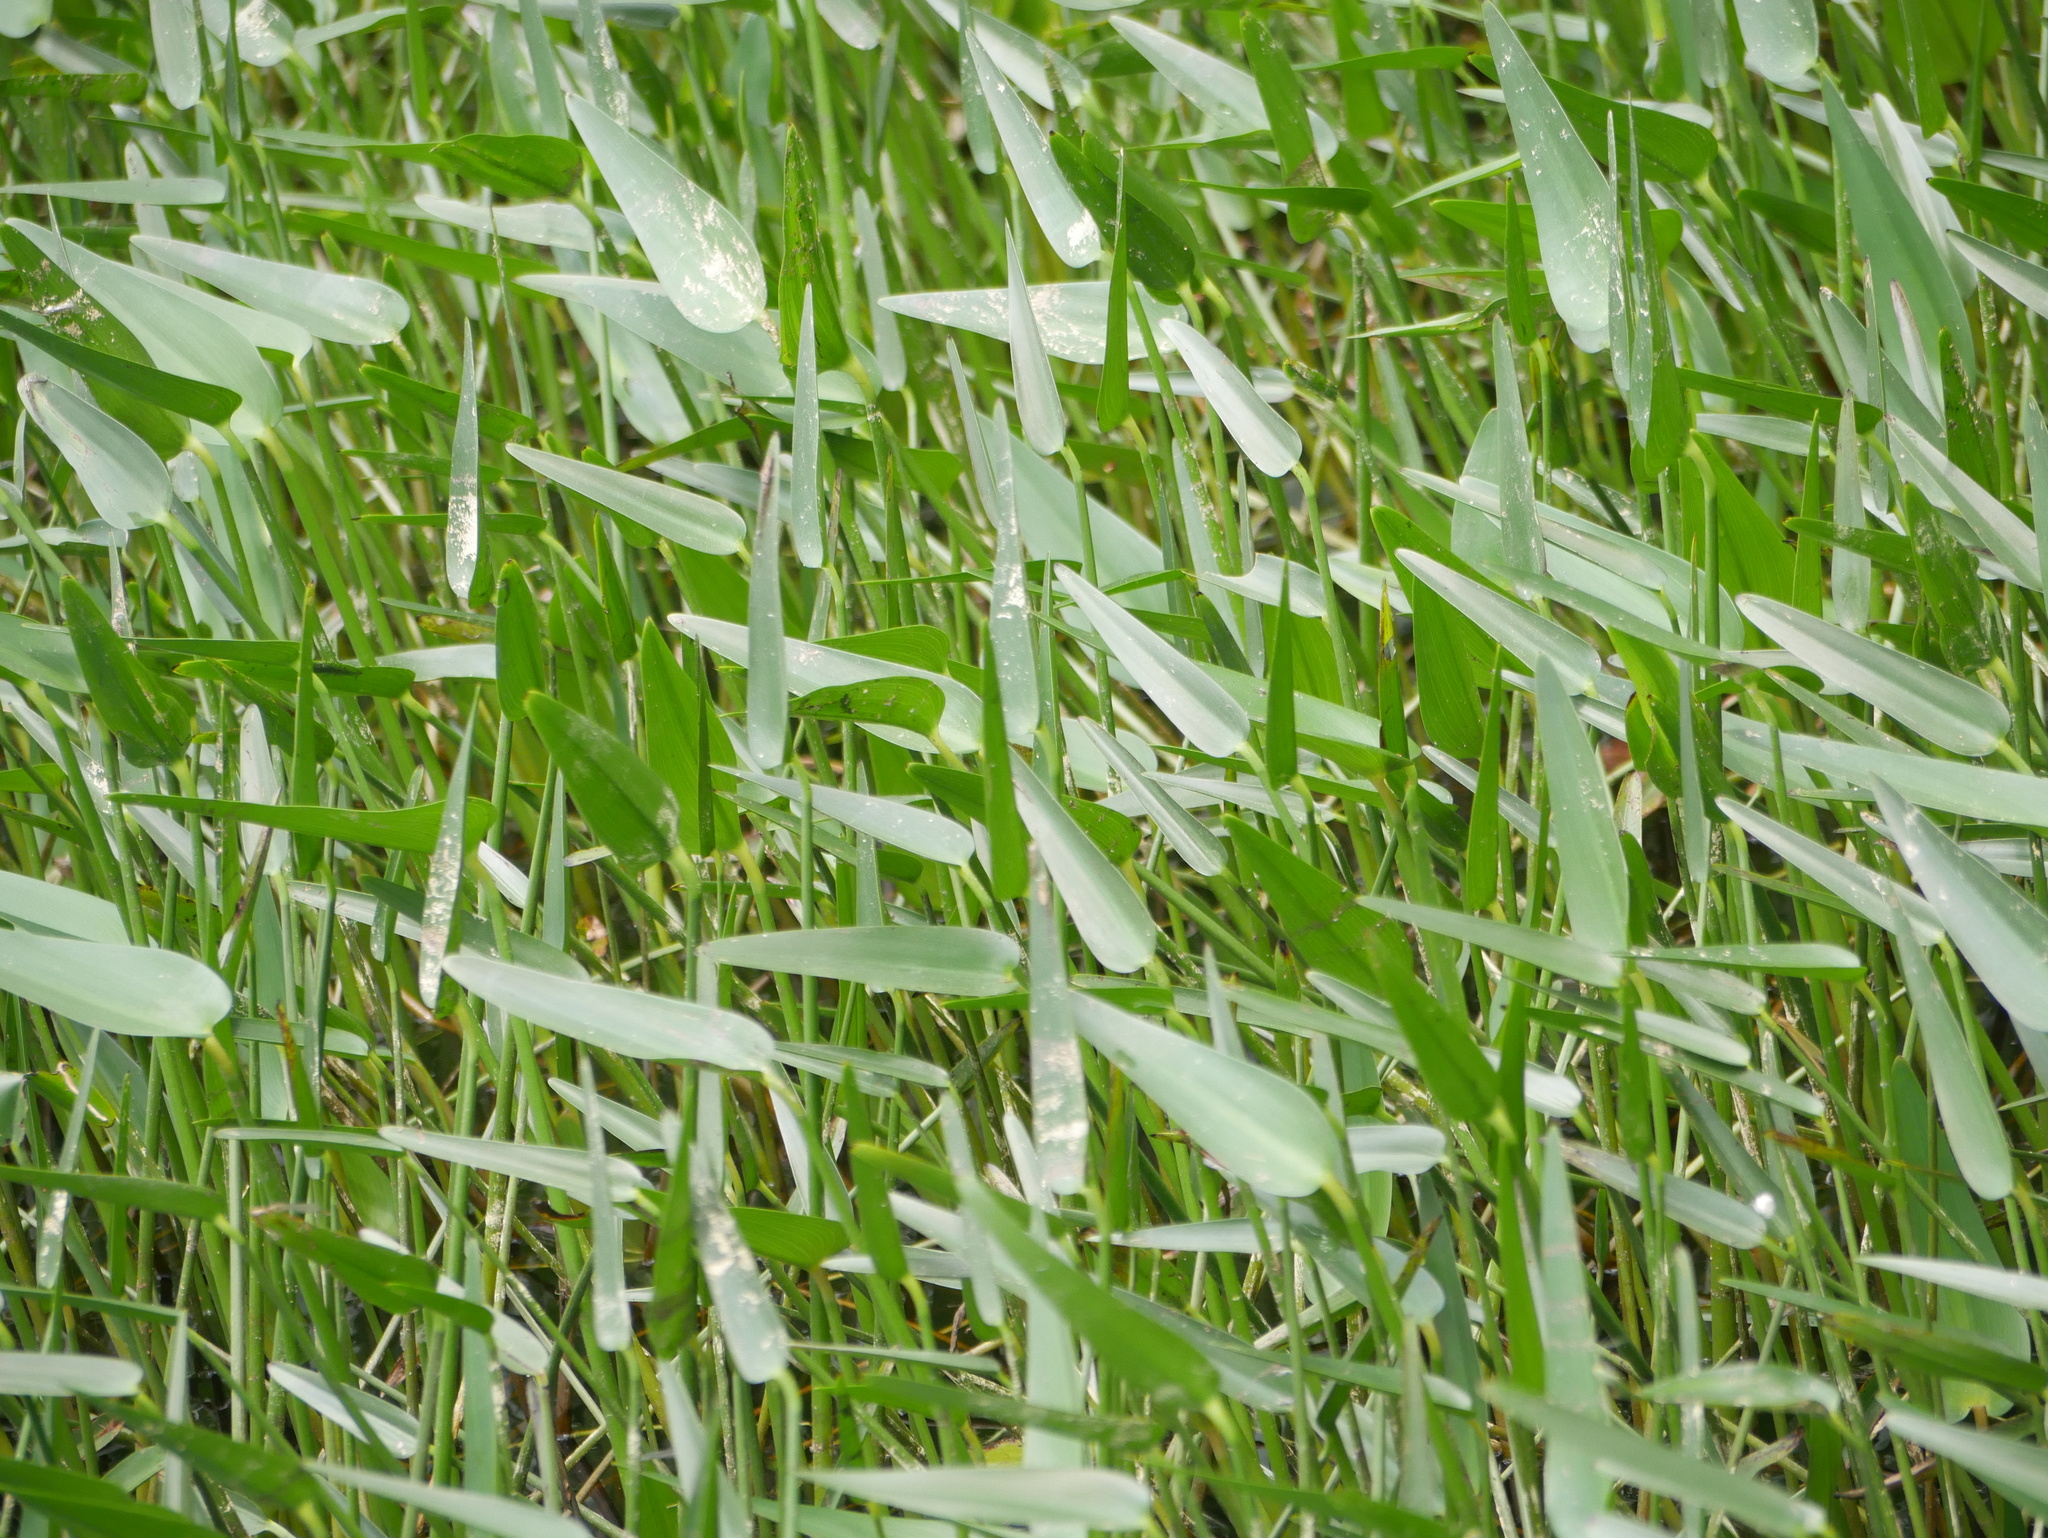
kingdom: Plantae
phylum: Tracheophyta
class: Liliopsida
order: Commelinales
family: Pontederiaceae
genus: Pontederia
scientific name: Pontederia cordata
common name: Pickerelweed
